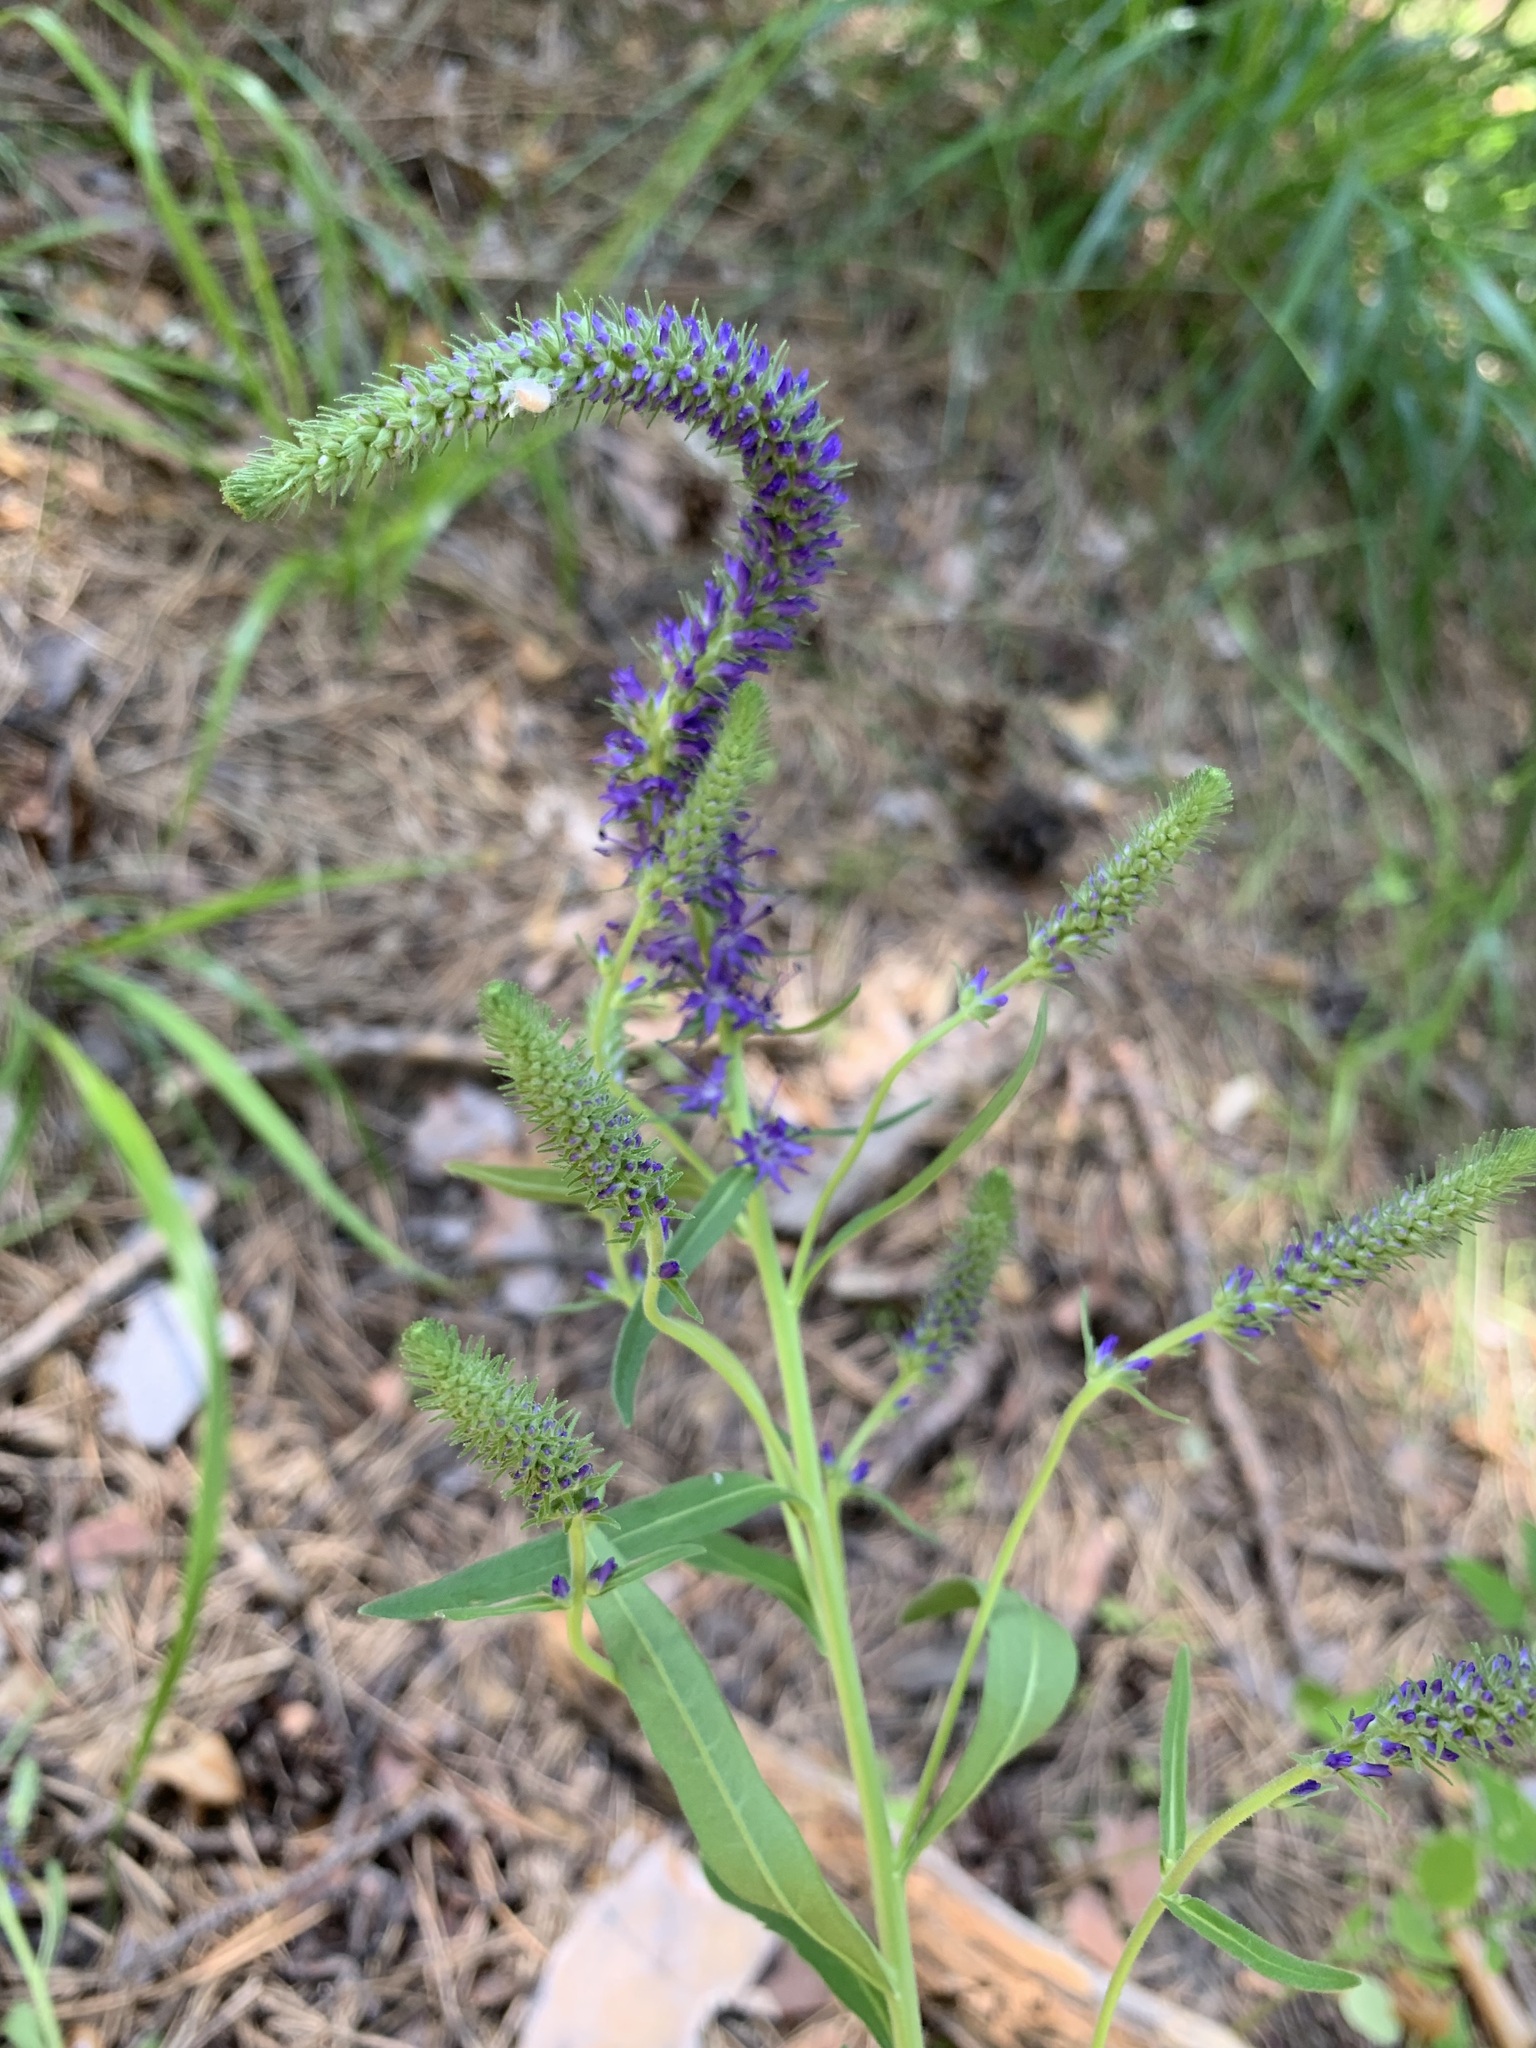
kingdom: Plantae
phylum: Tracheophyta
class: Magnoliopsida
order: Lamiales
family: Plantaginaceae
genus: Veronica
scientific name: Veronica spicata
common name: Spiked speedwell
